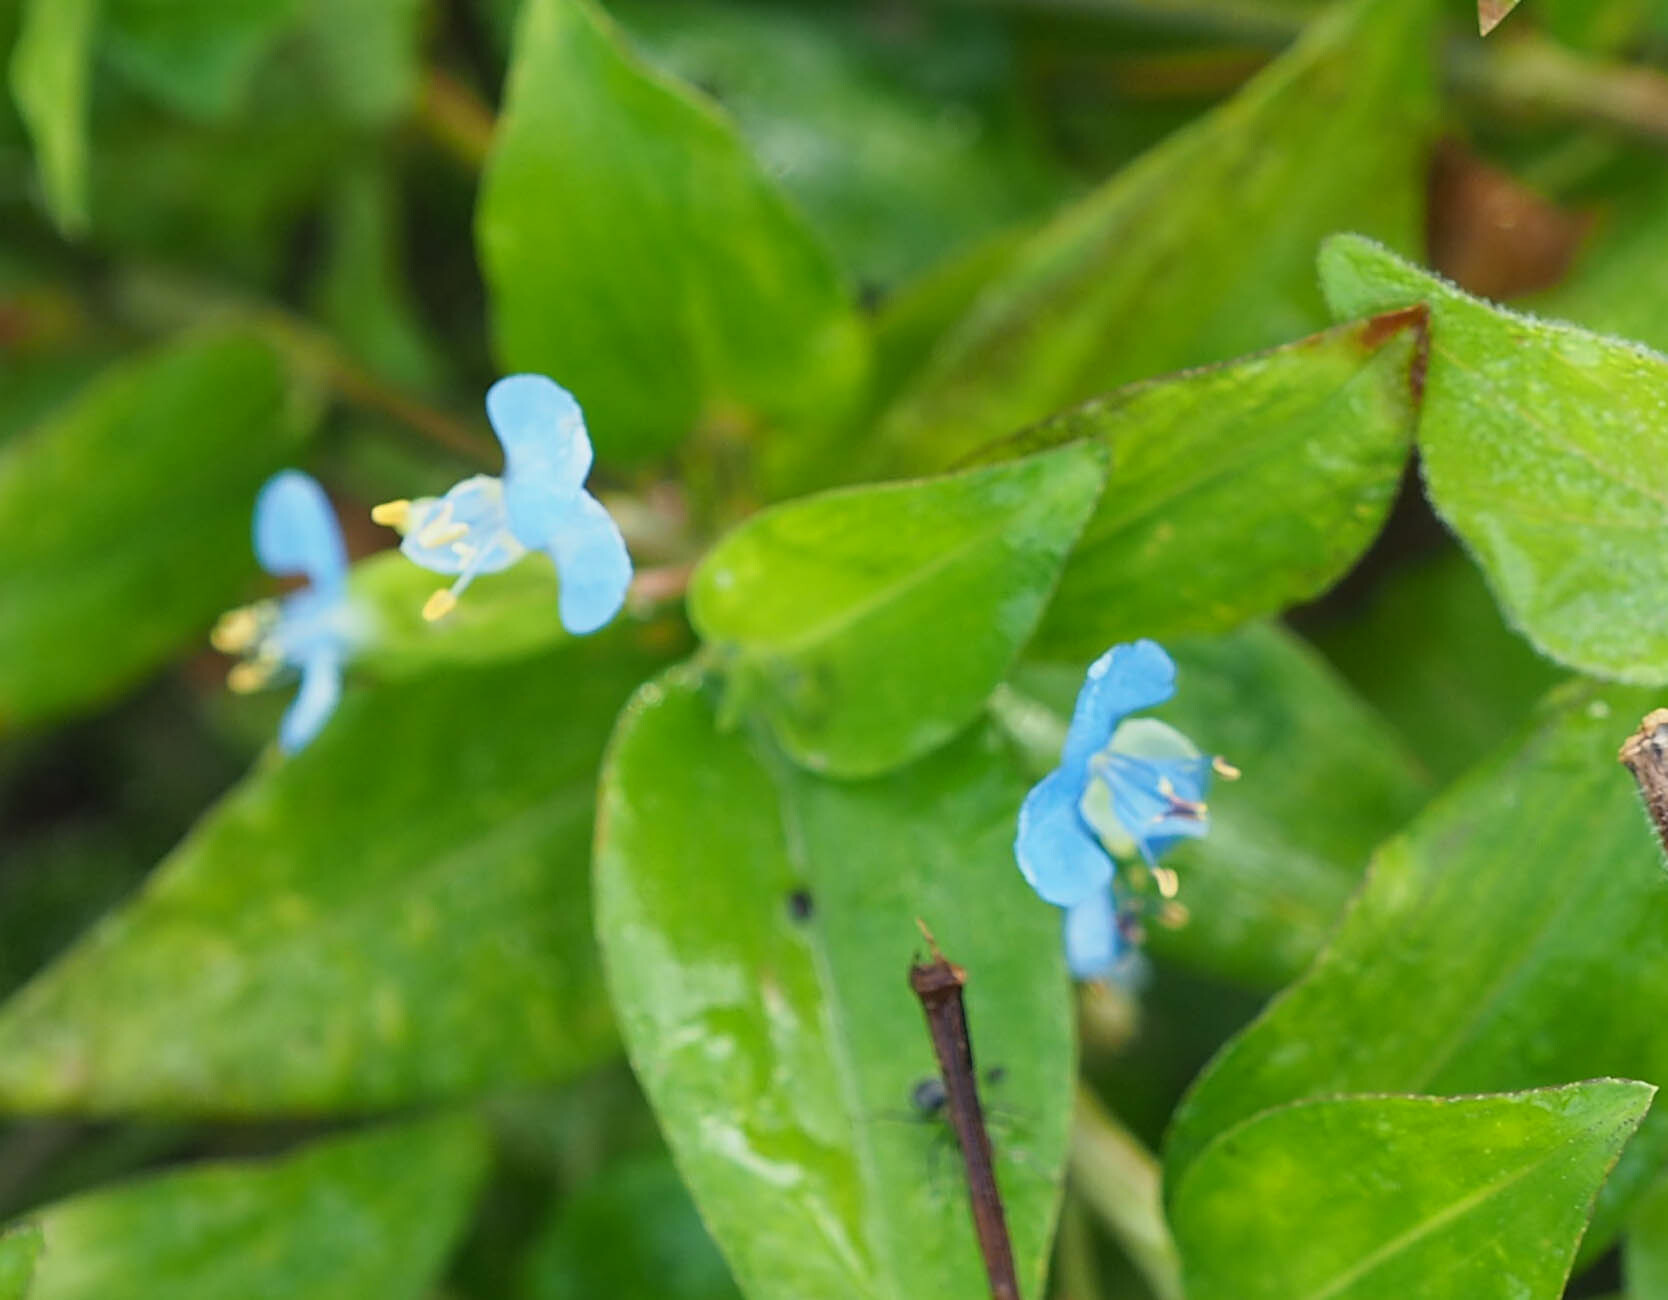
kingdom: Plantae
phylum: Tracheophyta
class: Liliopsida
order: Commelinales
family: Commelinaceae
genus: Commelina
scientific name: Commelina diffusa
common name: Climbing dayflower
